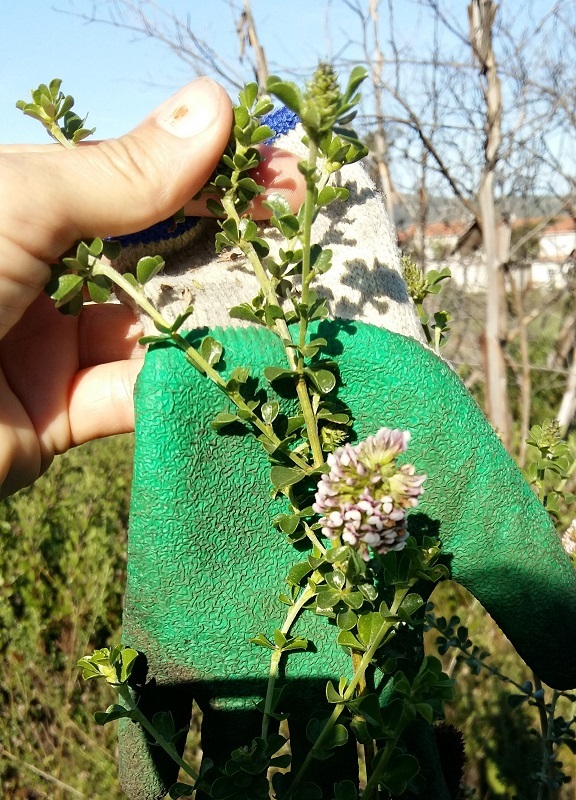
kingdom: Plantae
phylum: Tracheophyta
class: Magnoliopsida
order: Fabales
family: Fabaceae
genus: Psoralea
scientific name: Psoralea stachyera
